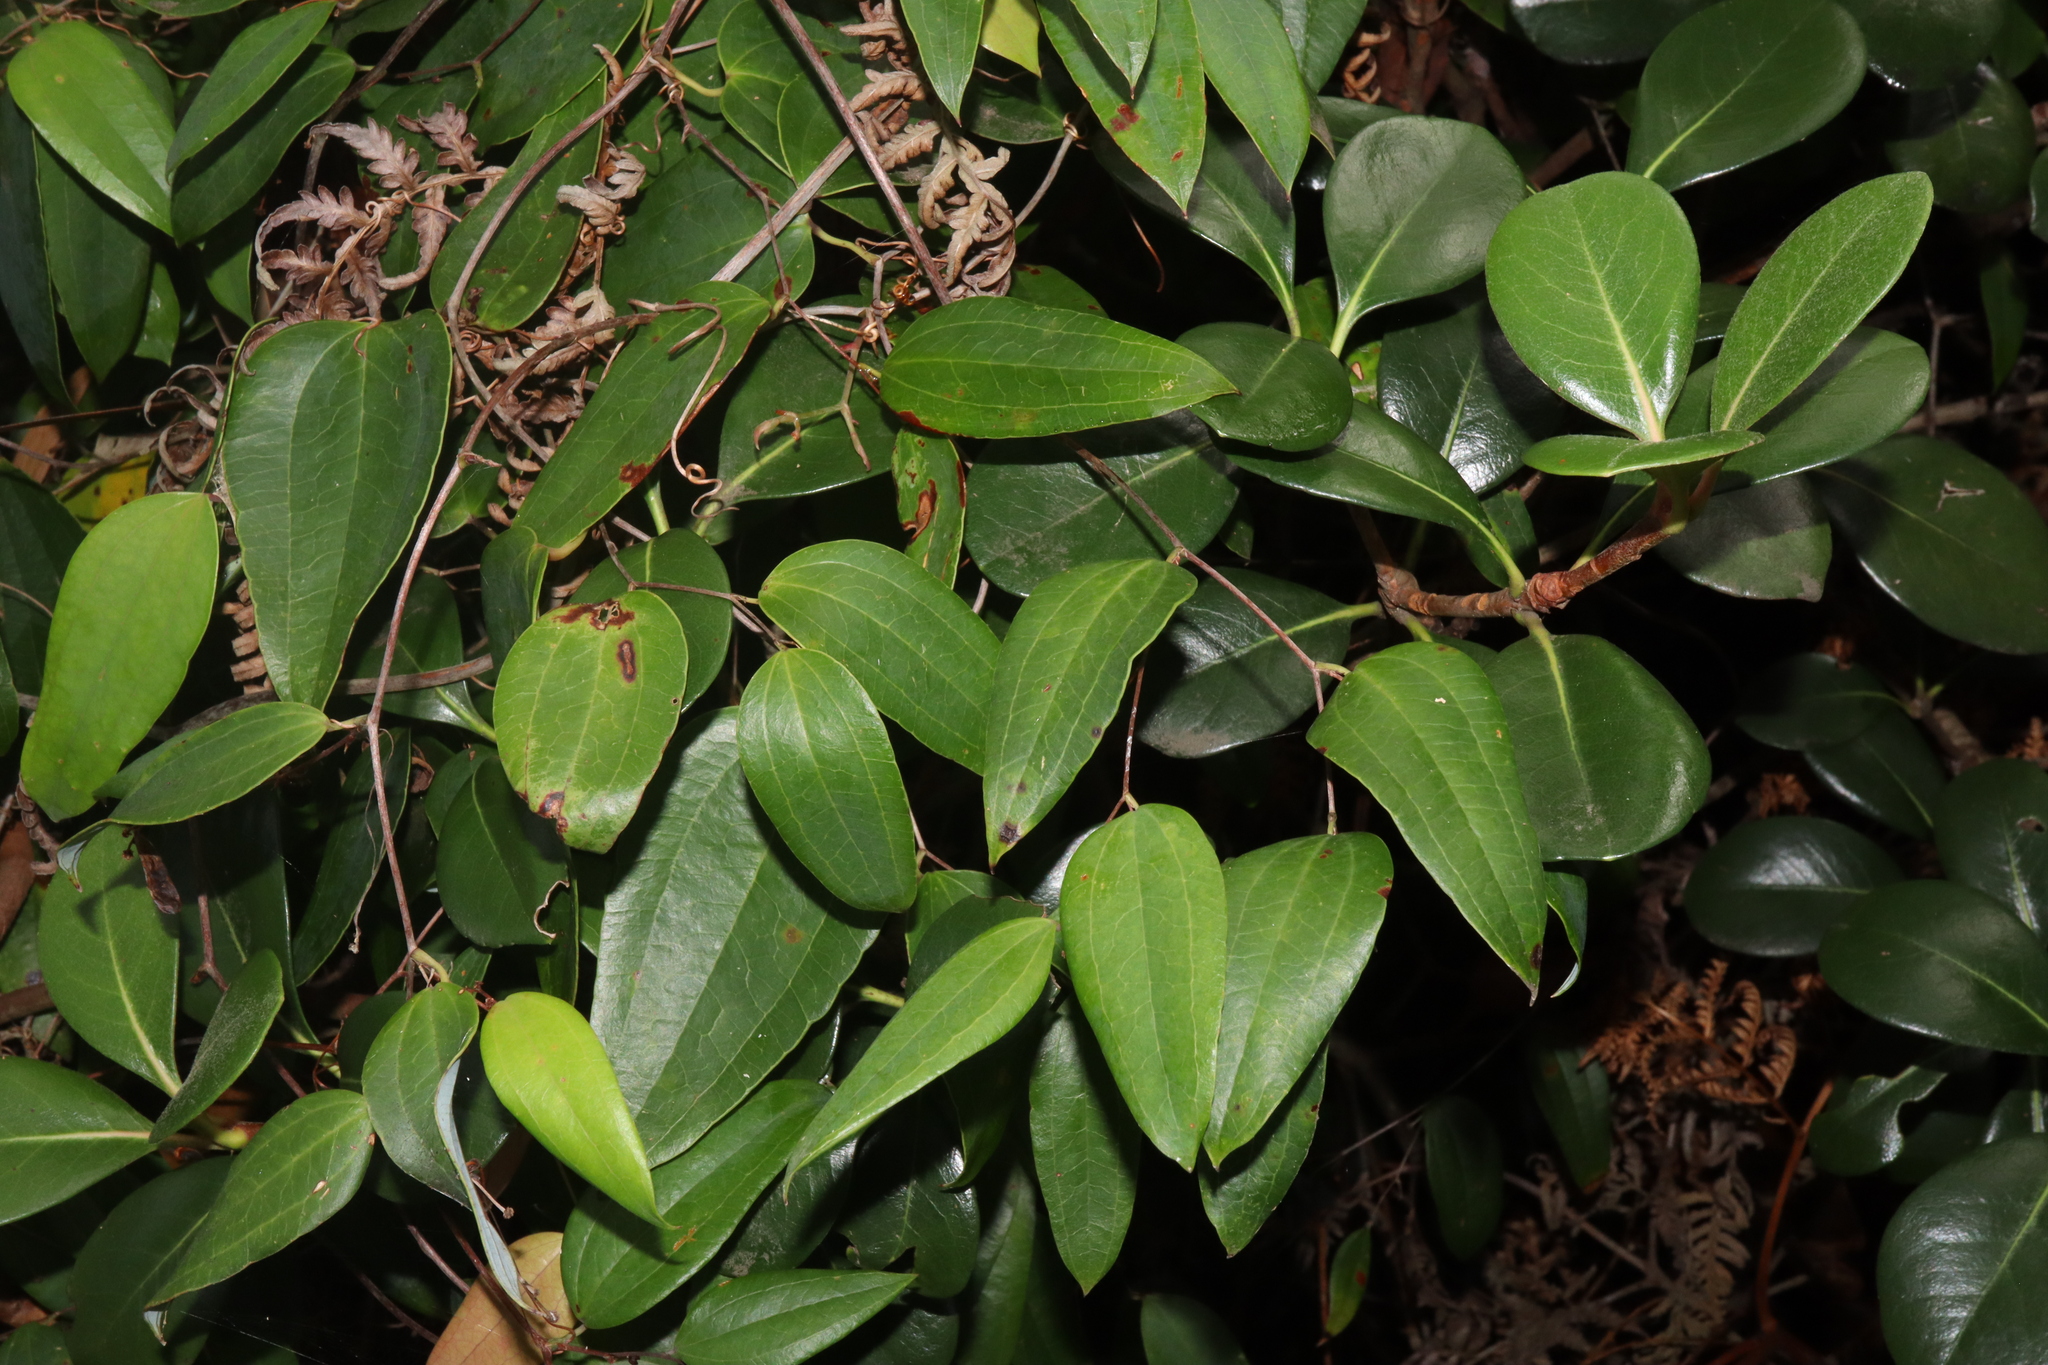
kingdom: Plantae
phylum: Tracheophyta
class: Liliopsida
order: Liliales
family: Smilacaceae
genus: Smilax
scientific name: Smilax glyciphylla
